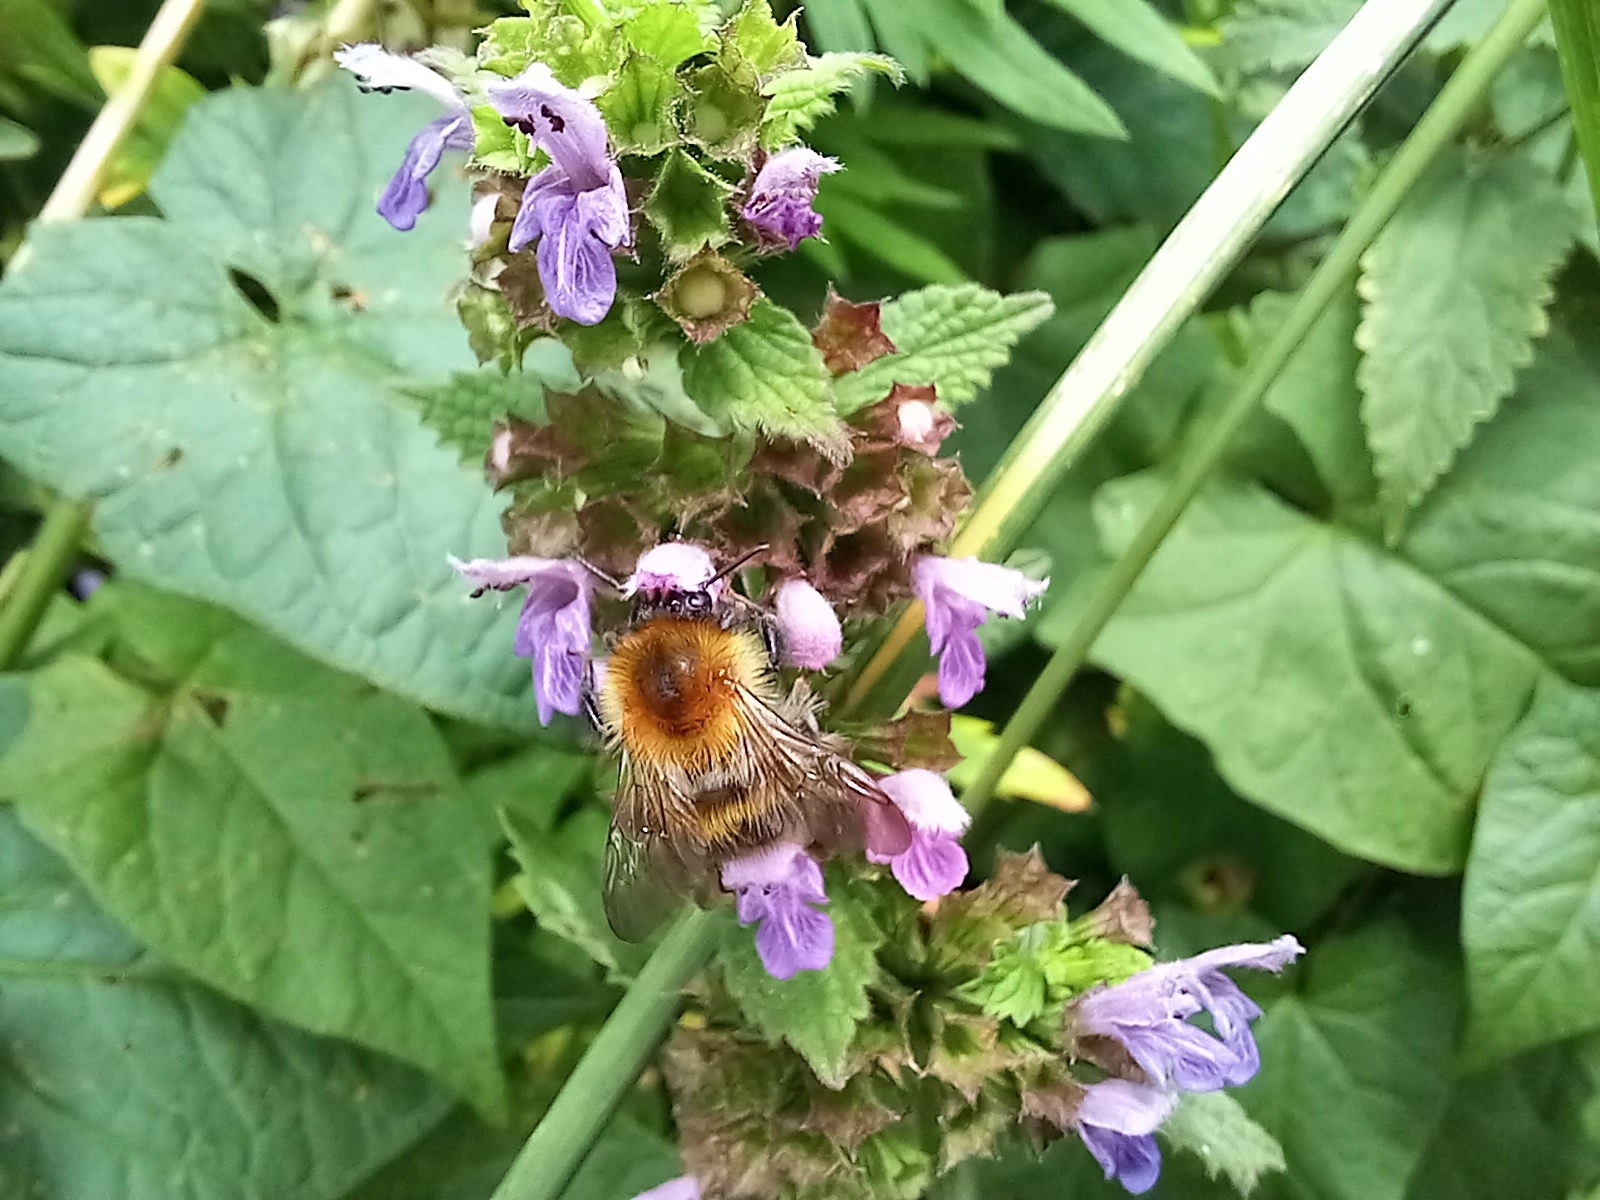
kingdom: Animalia
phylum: Arthropoda
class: Insecta
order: Hymenoptera
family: Apidae
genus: Bombus
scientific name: Bombus pascuorum
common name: Common carder bee
